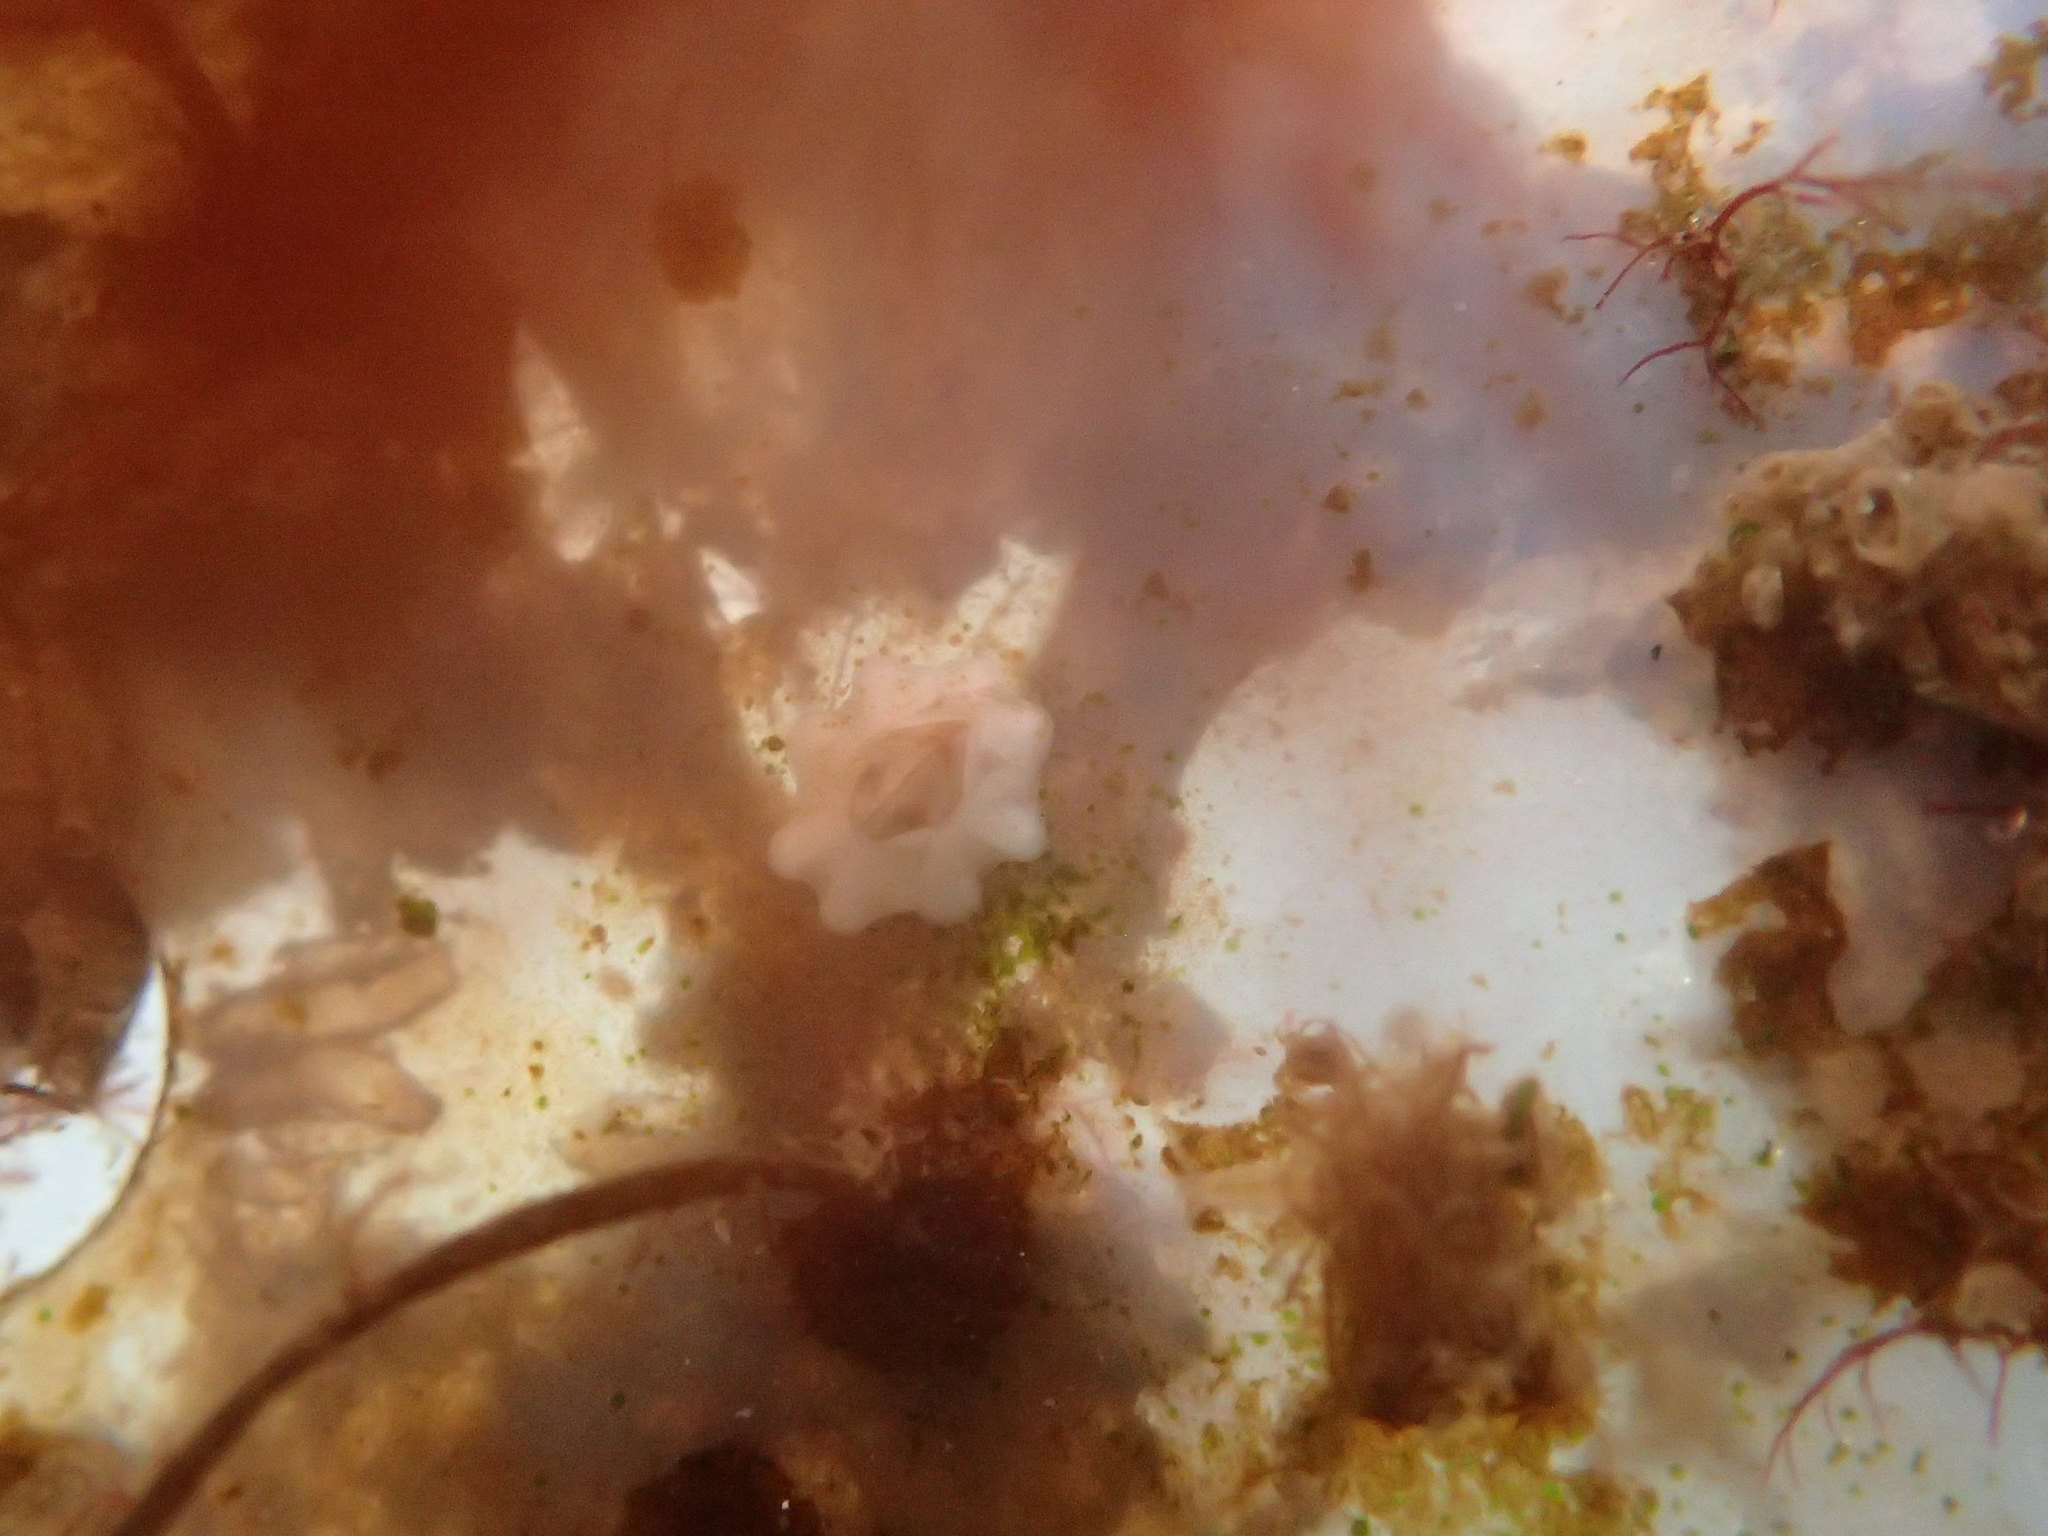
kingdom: Animalia
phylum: Arthropoda
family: Elminiidae
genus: Austrominius
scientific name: Austrominius modestus
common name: Australasian barnacle
